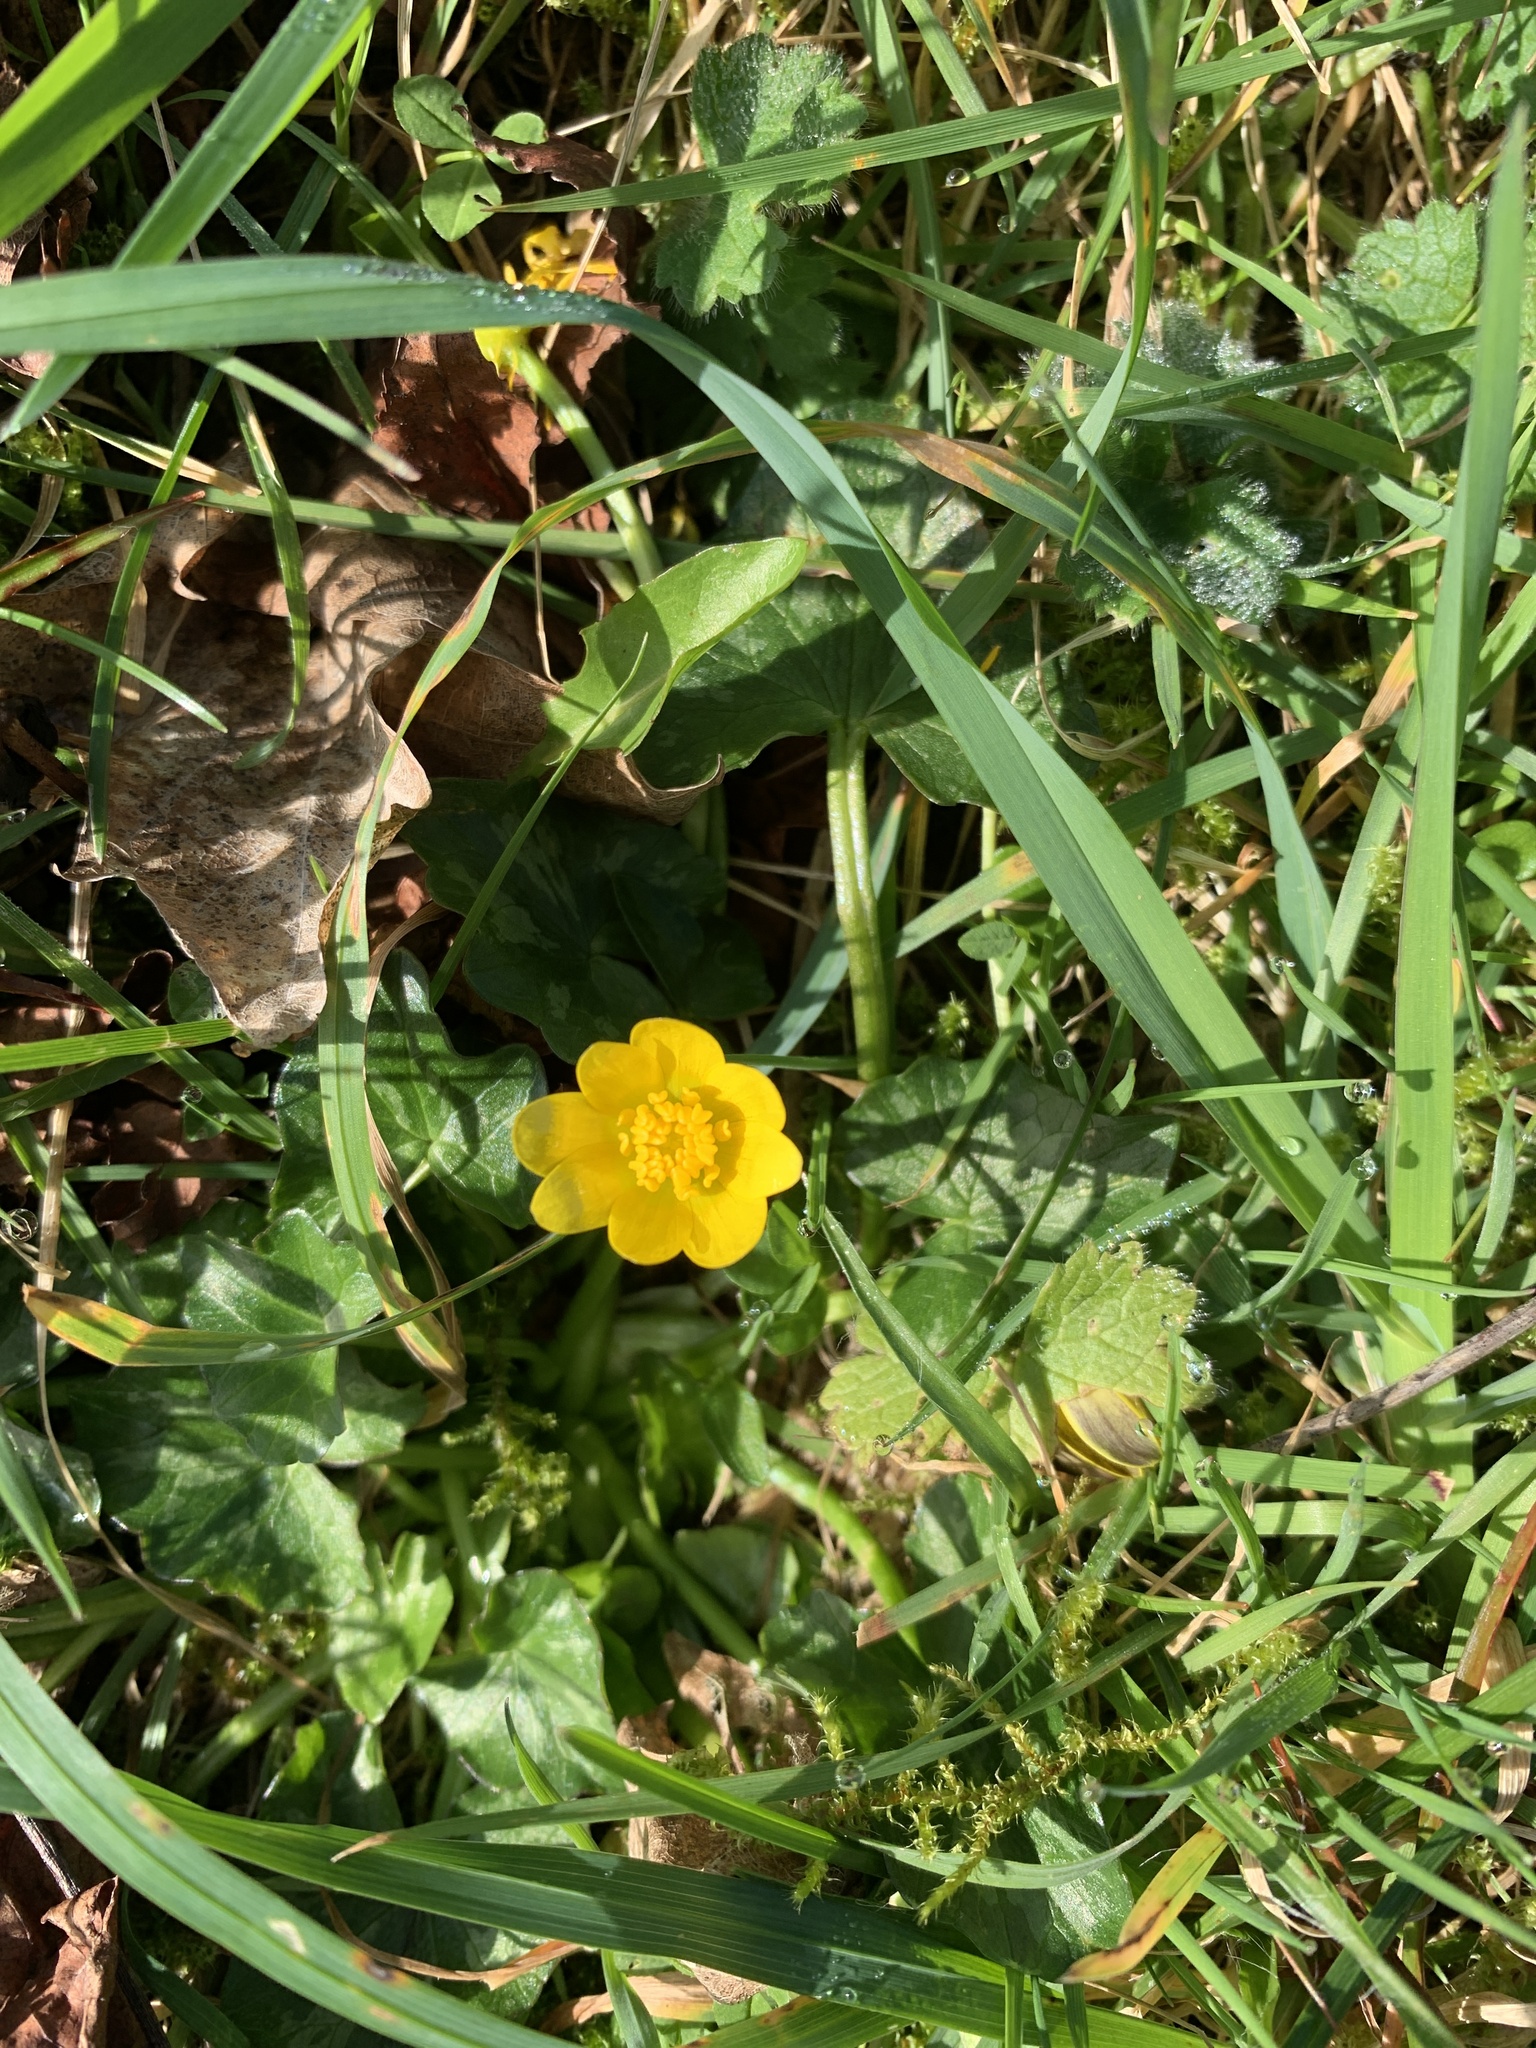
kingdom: Plantae
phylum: Tracheophyta
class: Magnoliopsida
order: Ranunculales
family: Ranunculaceae
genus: Ficaria
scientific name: Ficaria verna
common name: Lesser celandine
